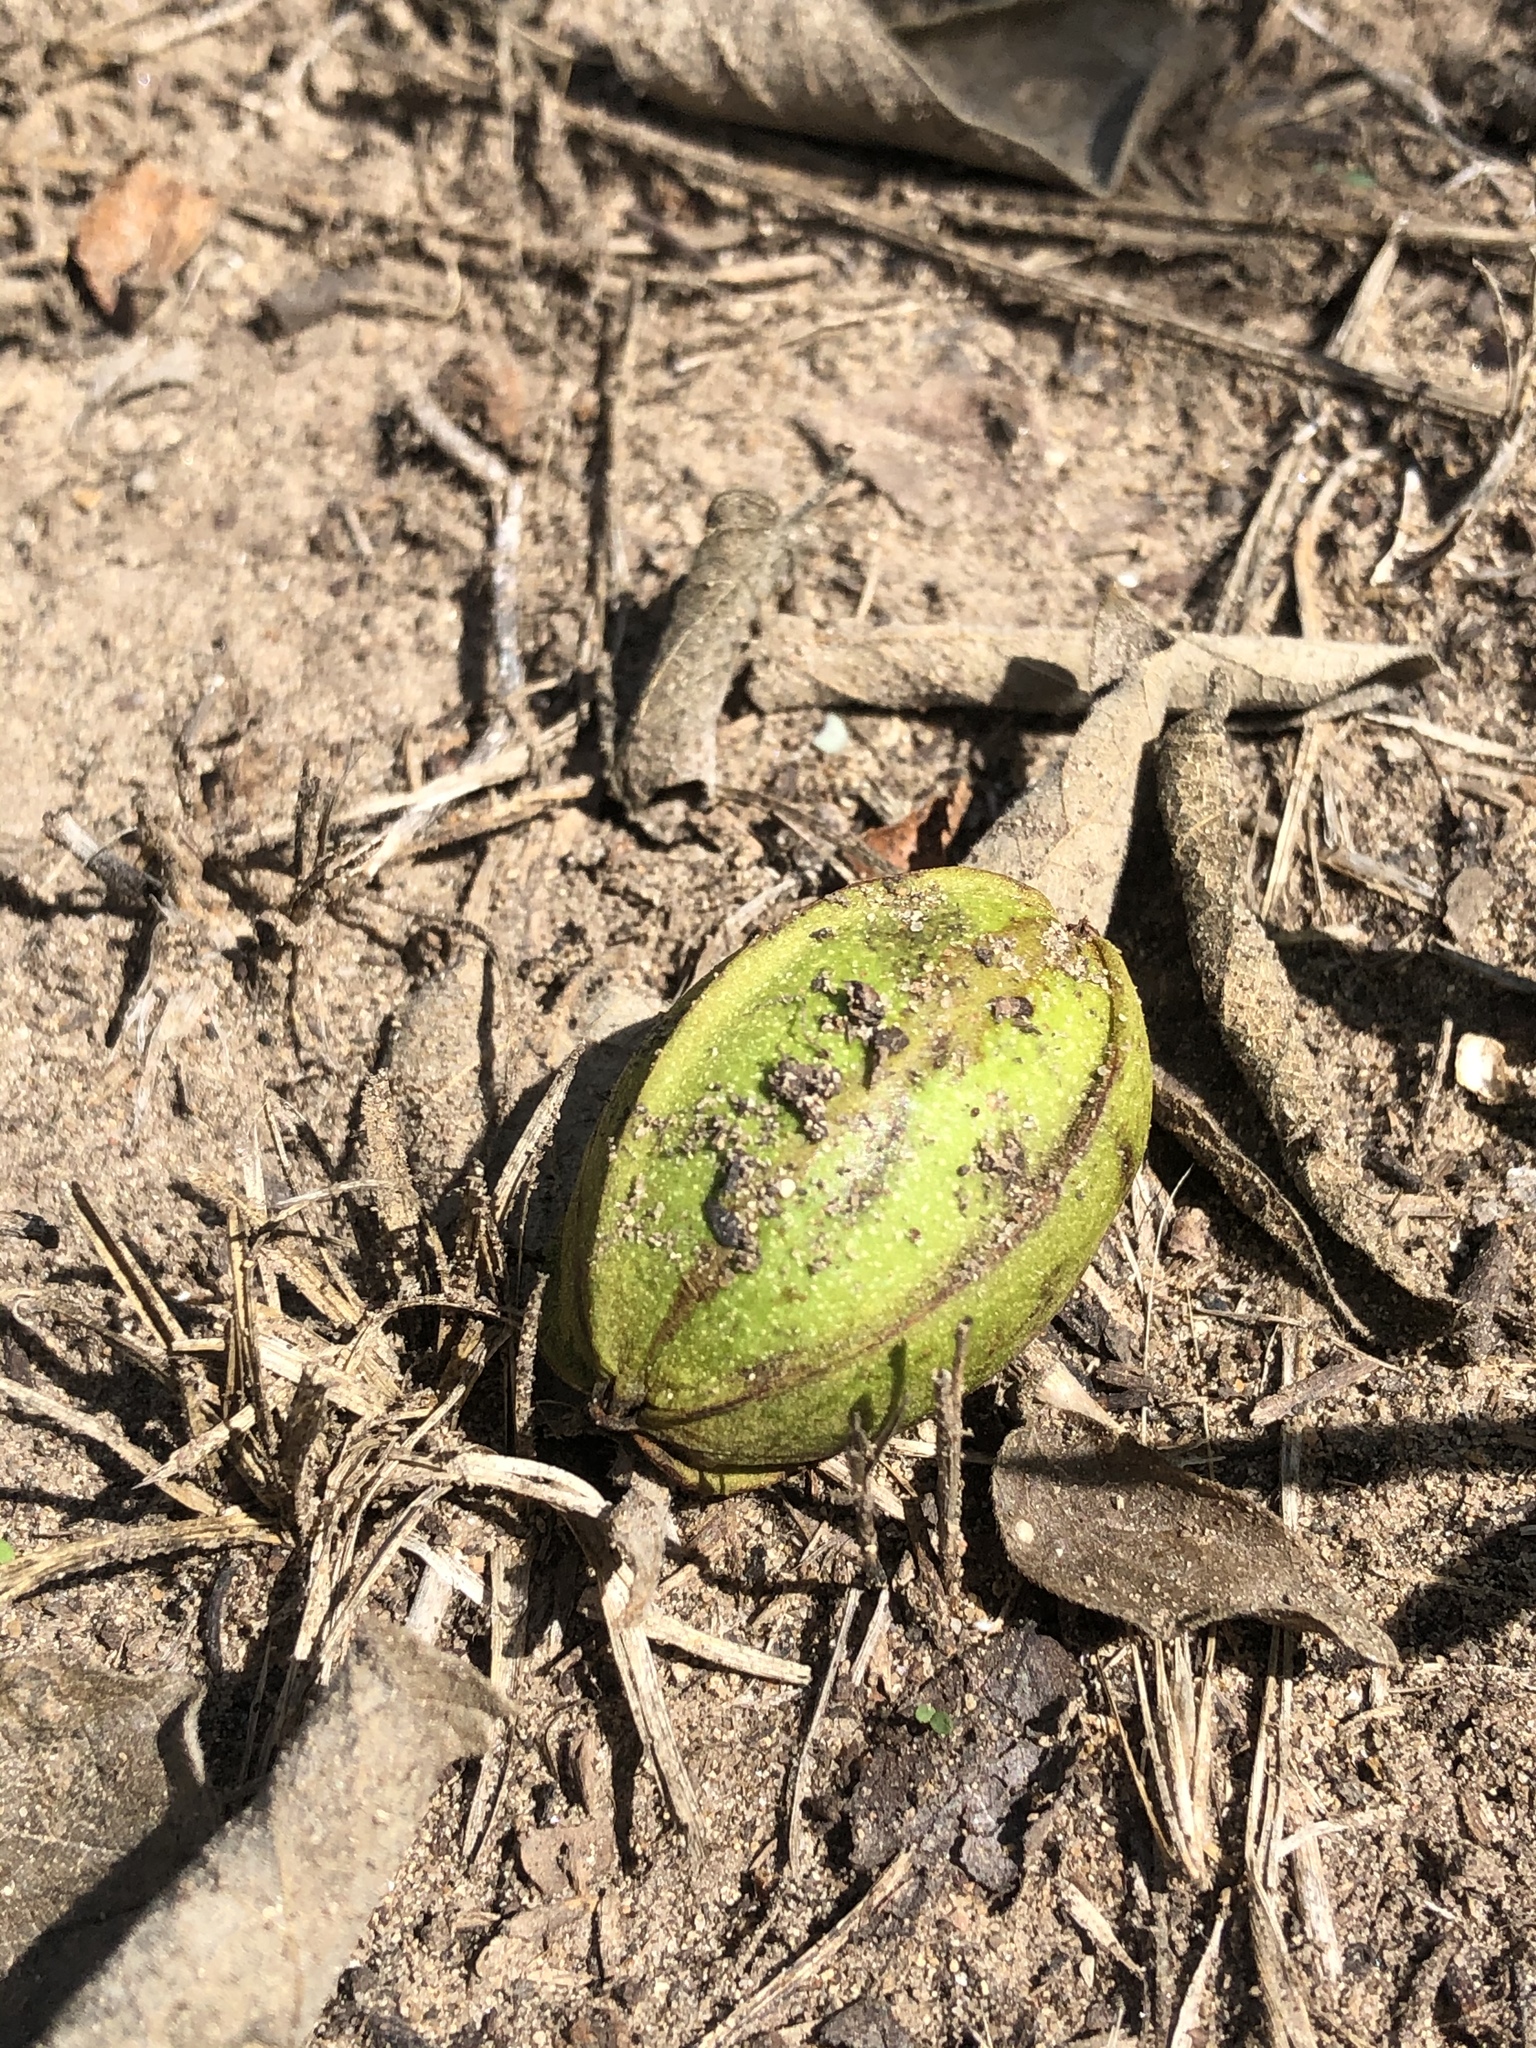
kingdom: Plantae
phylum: Tracheophyta
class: Magnoliopsida
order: Fagales
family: Juglandaceae
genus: Carya
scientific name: Carya illinoinensis
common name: Pecan
